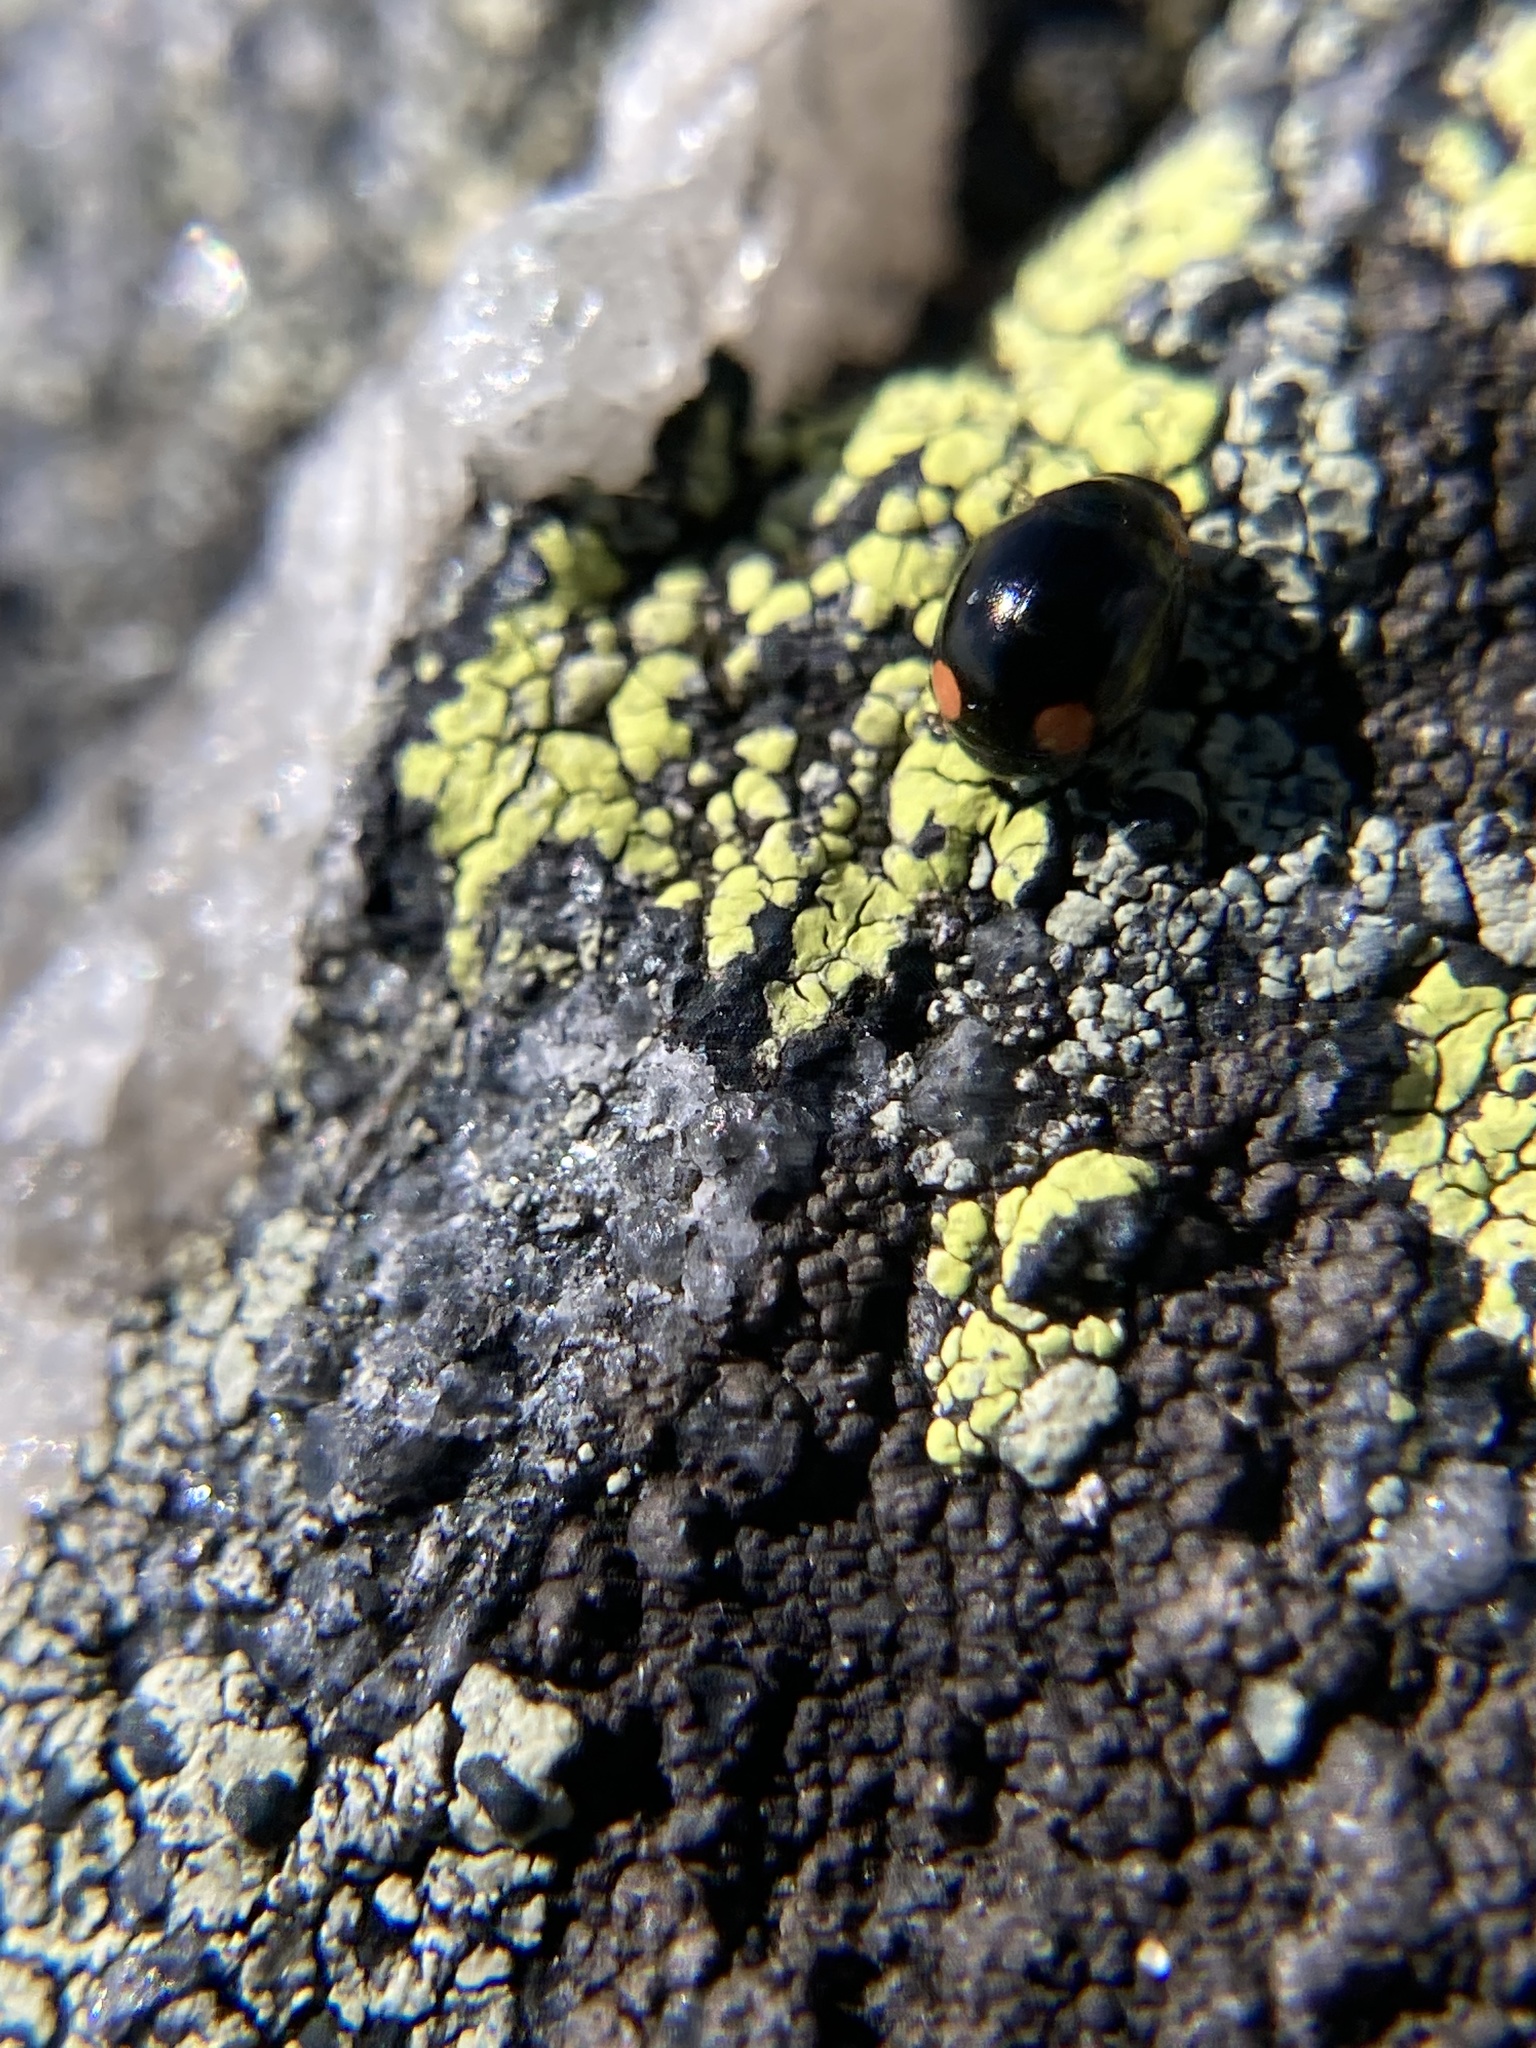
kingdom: Animalia
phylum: Arthropoda
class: Insecta
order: Coleoptera
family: Coccinellidae
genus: Hyperaspis
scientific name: Hyperaspis bigeminata
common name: Bigeminate sigil lady beetle
